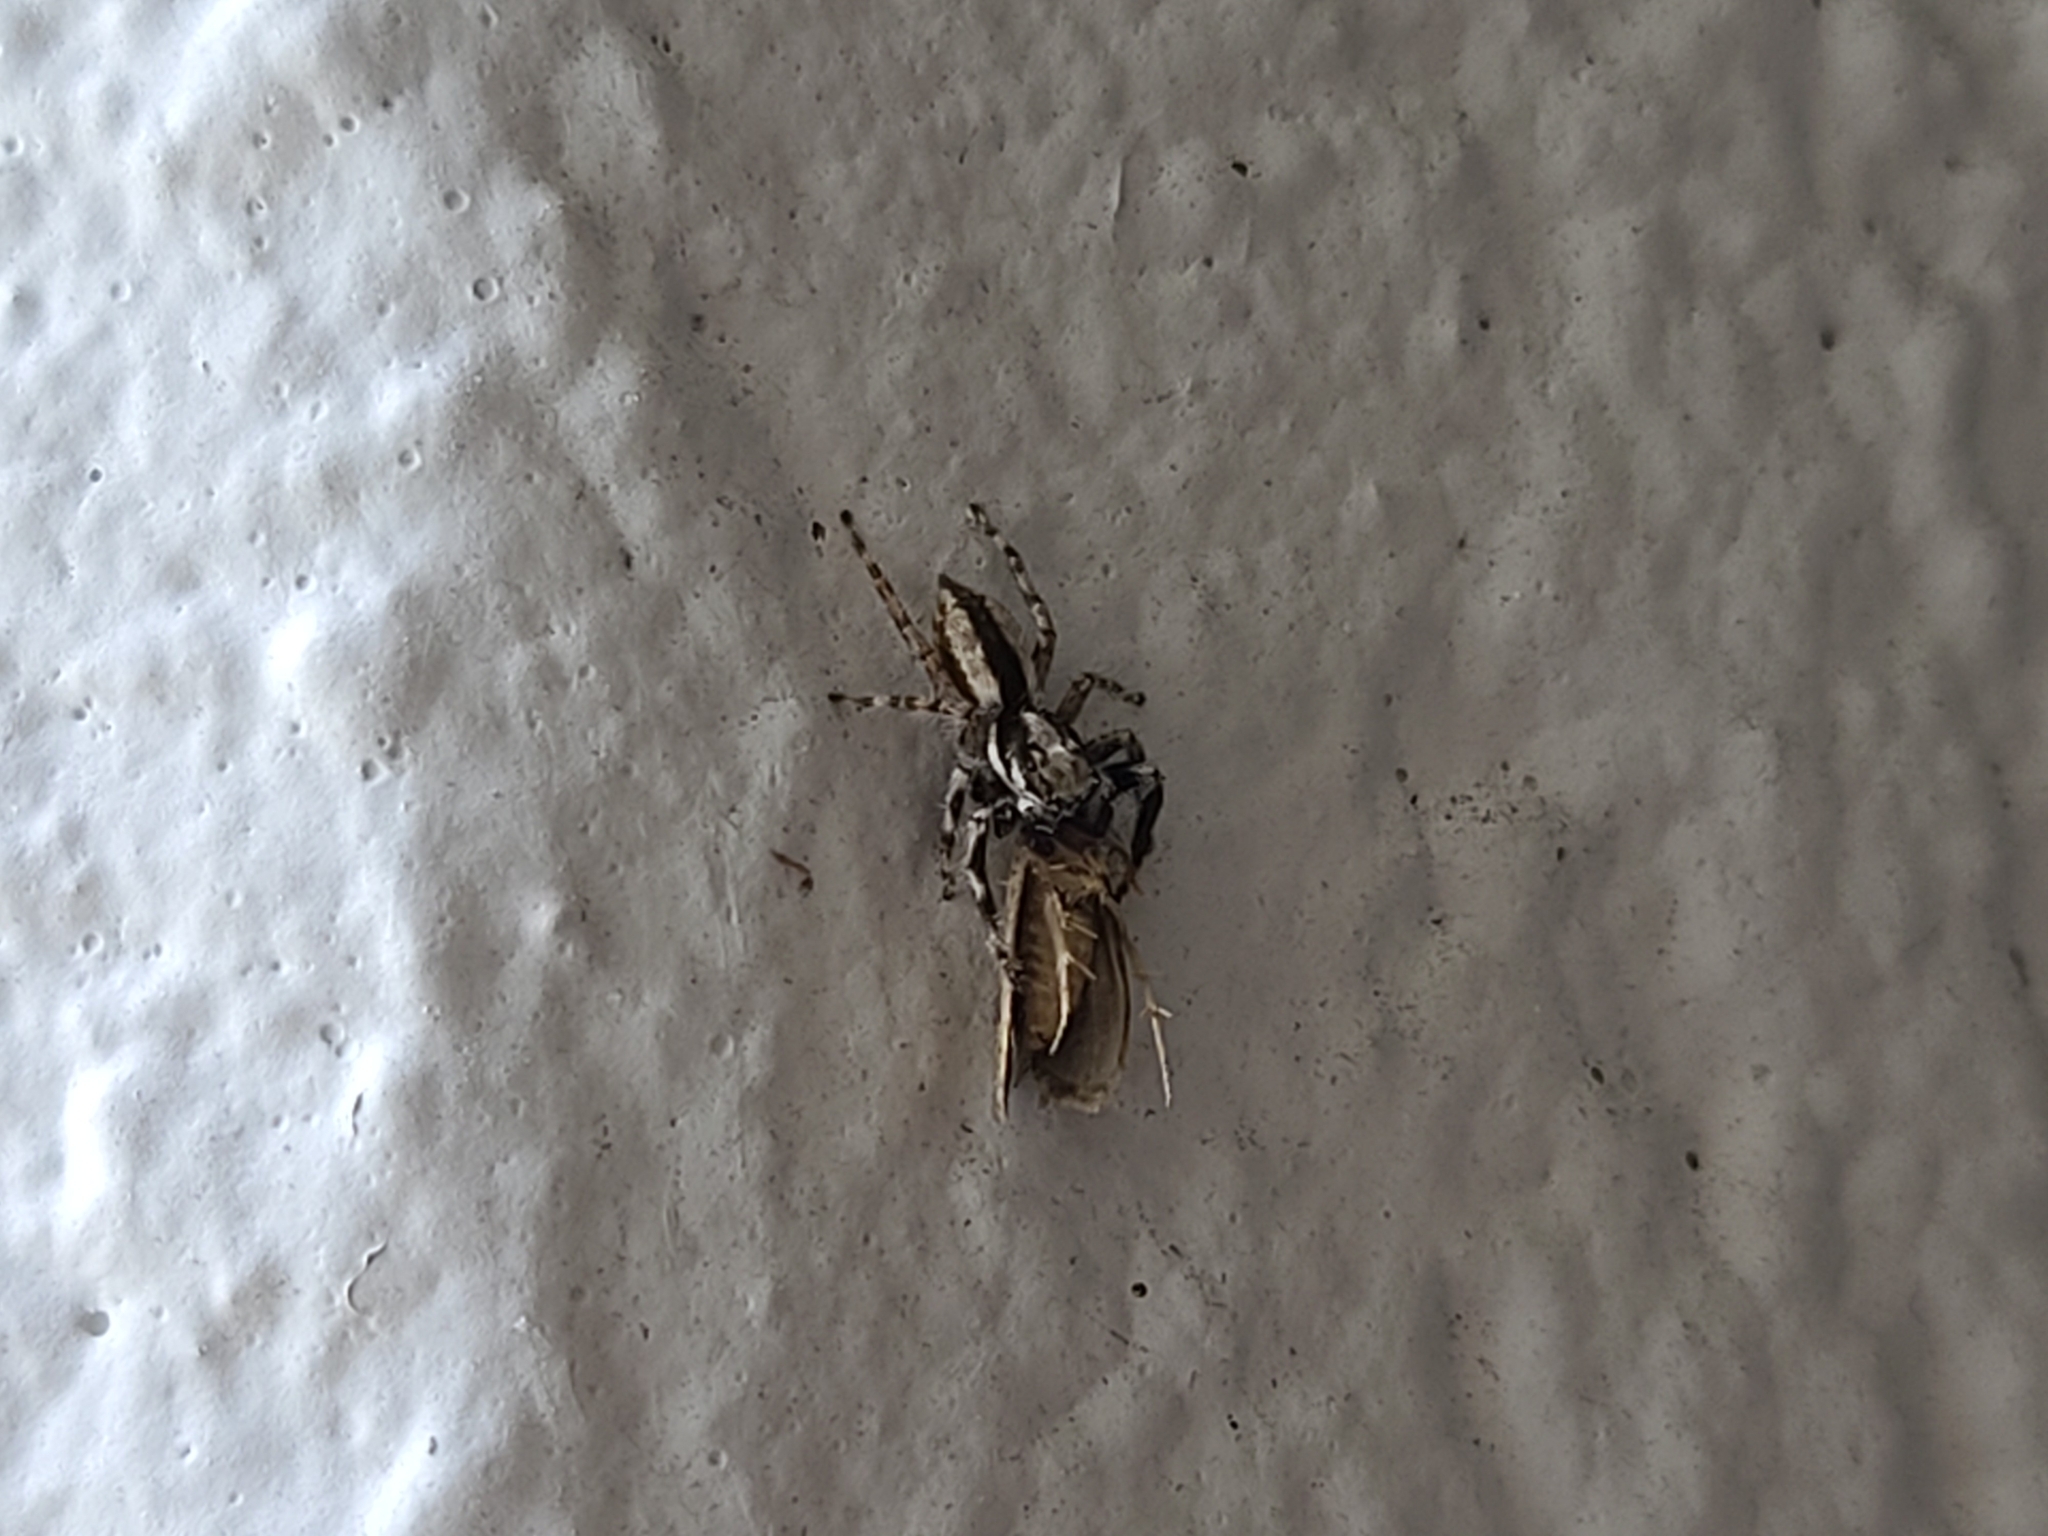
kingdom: Animalia
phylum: Arthropoda
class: Arachnida
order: Araneae
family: Salticidae
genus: Menemerus
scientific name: Menemerus bivittatus
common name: Gray wall jumper
